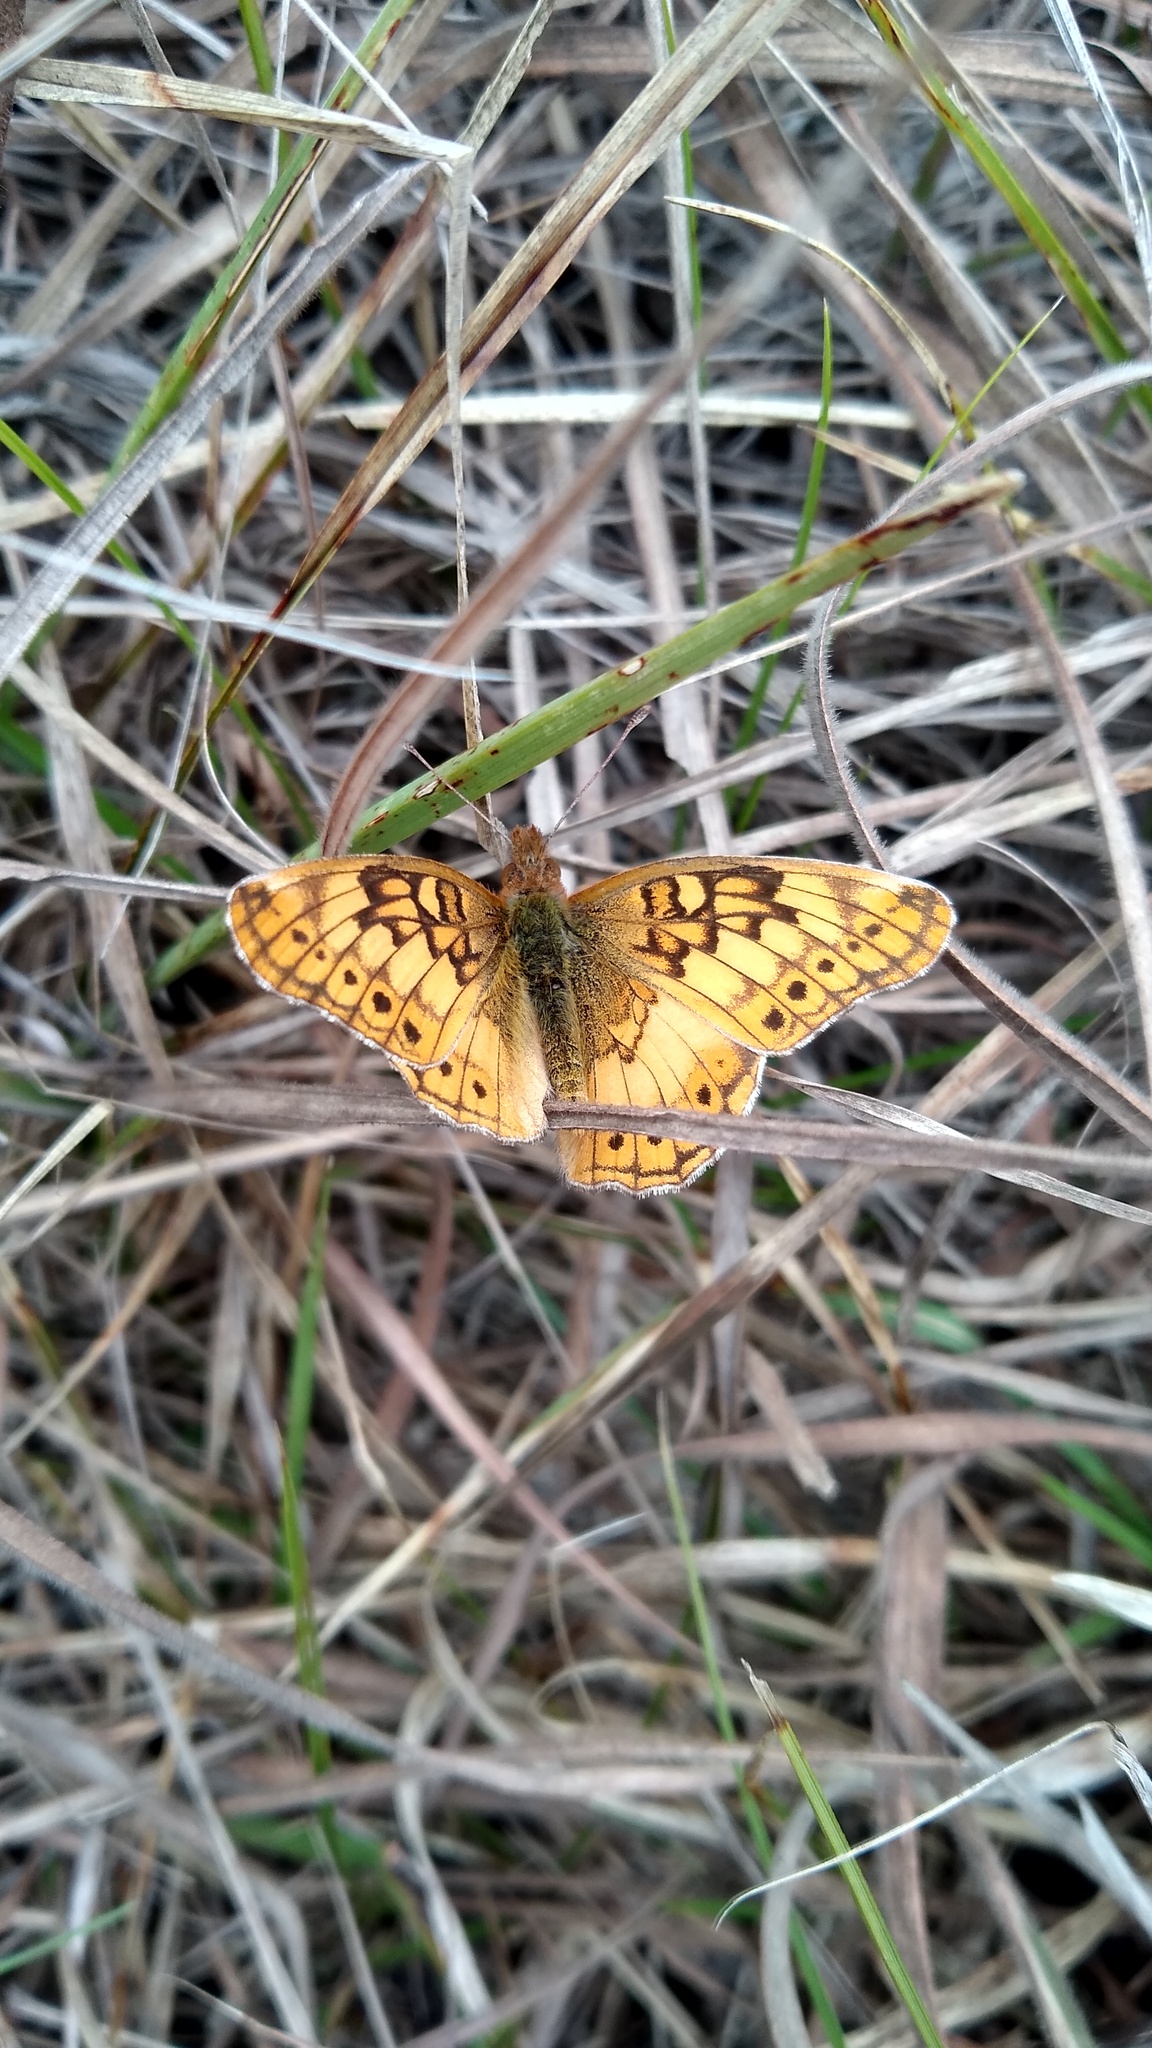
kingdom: Animalia
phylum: Arthropoda
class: Insecta
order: Lepidoptera
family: Nymphalidae
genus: Euptoieta
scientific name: Euptoieta hortensia
